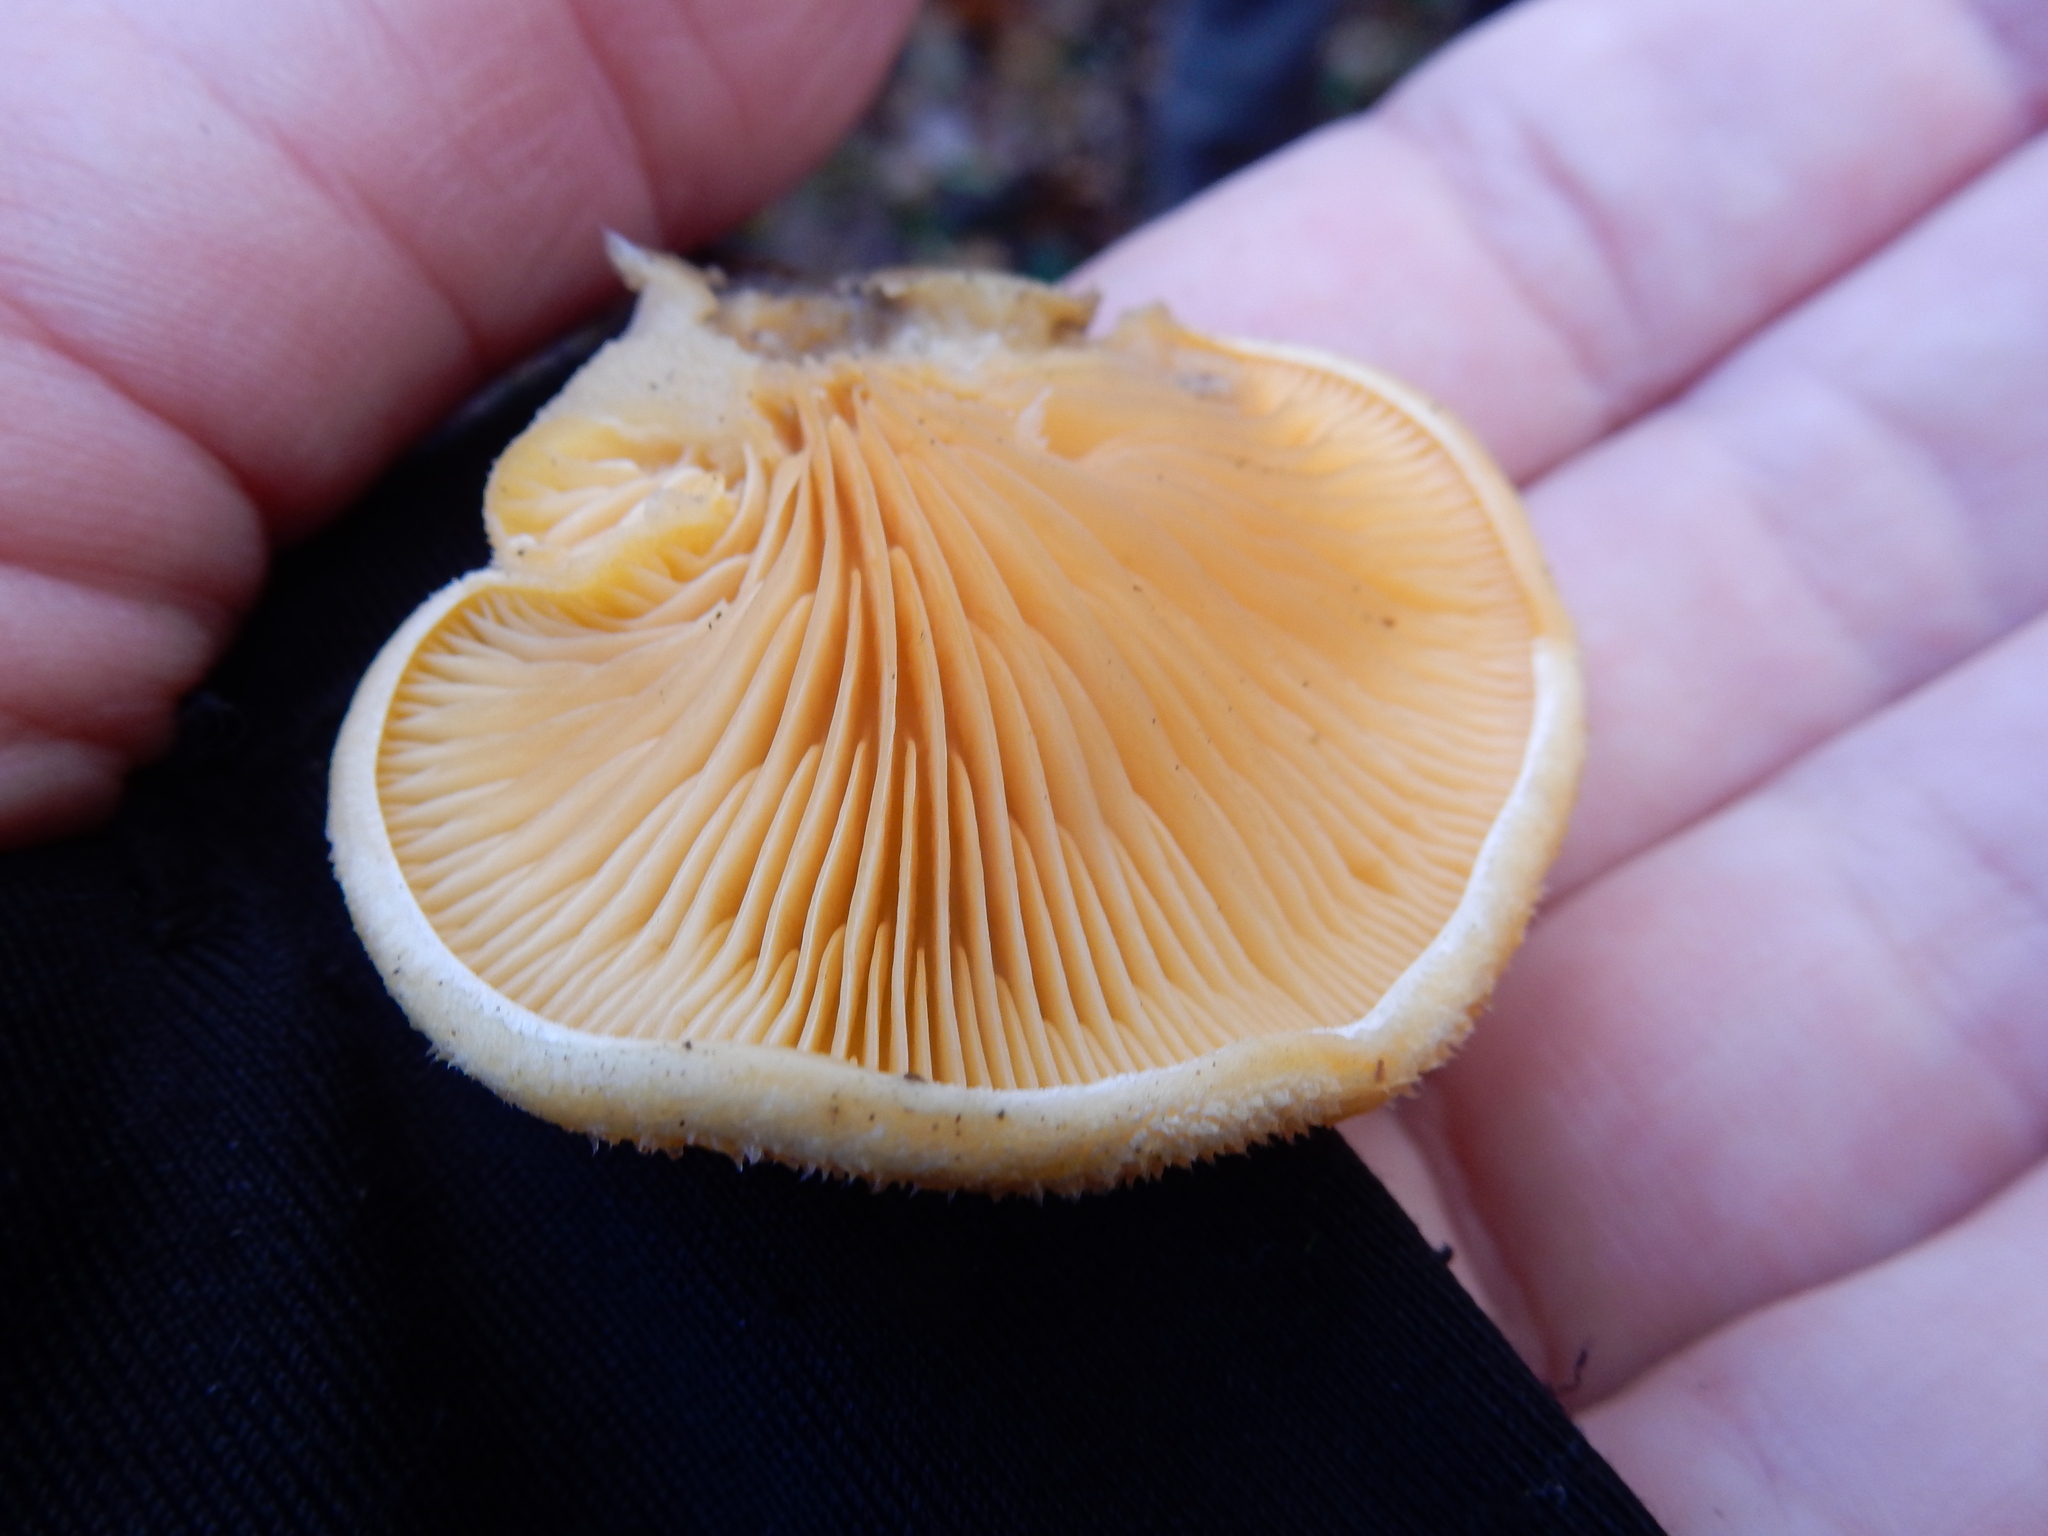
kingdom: Fungi
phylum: Basidiomycota
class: Agaricomycetes
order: Agaricales
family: Phyllotopsidaceae
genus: Phyllotopsis
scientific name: Phyllotopsis nidulans
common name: Orange mock oyster
